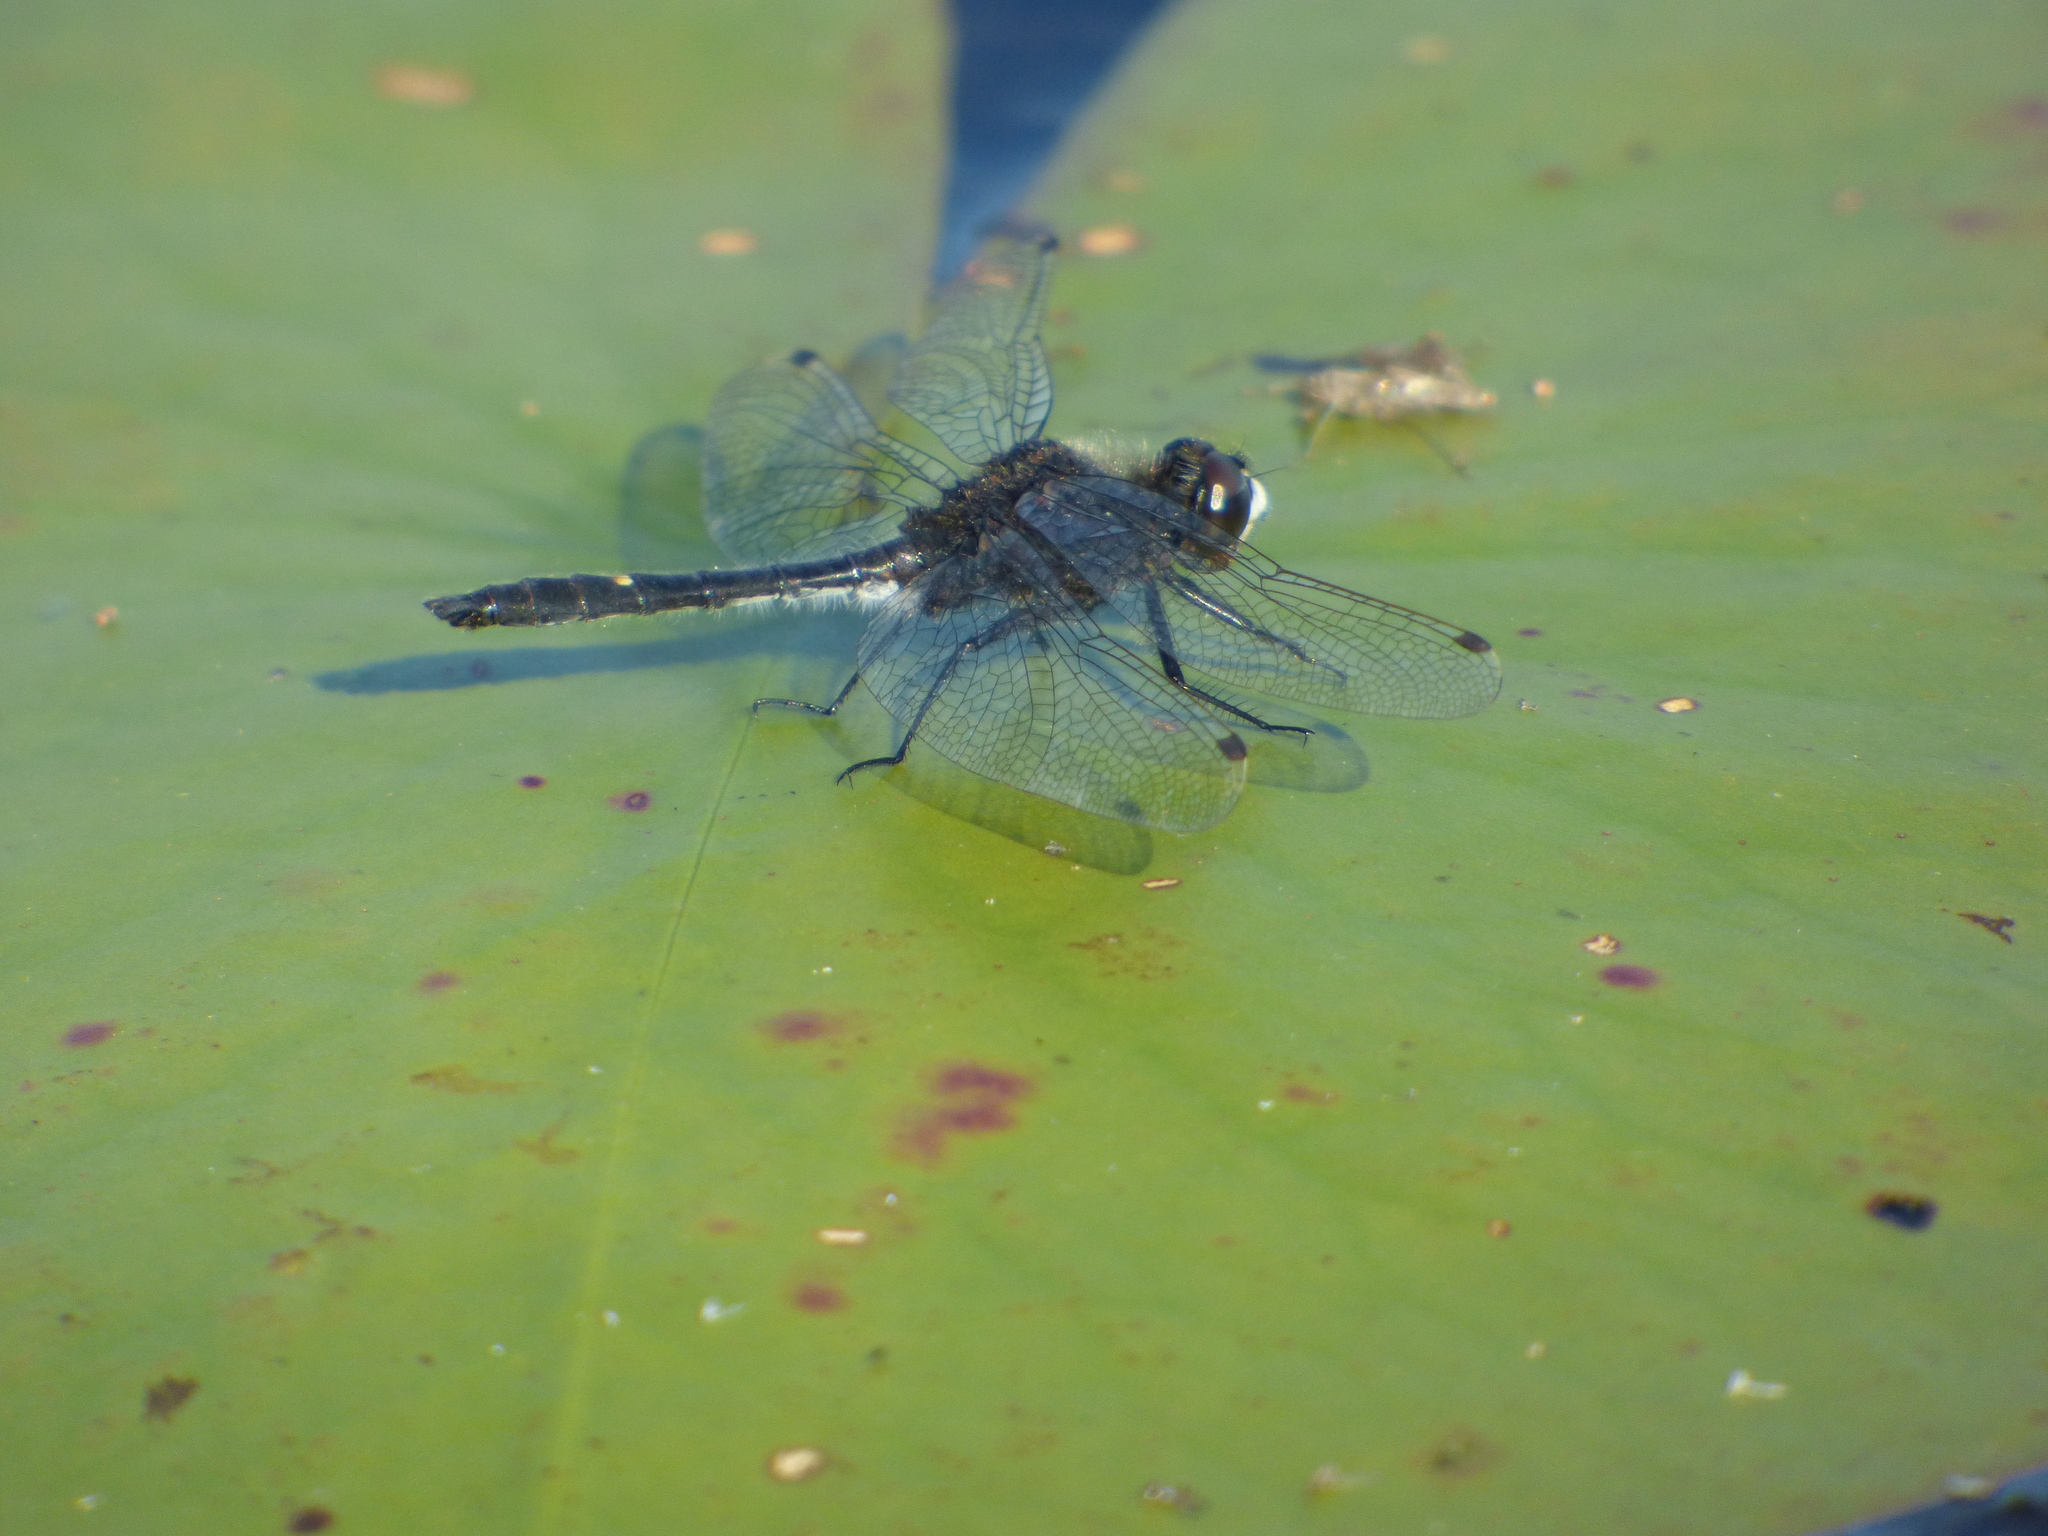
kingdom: Animalia
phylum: Arthropoda
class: Insecta
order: Odonata
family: Libellulidae
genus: Leucorrhinia
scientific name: Leucorrhinia intacta
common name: Dot-tailed whiteface
